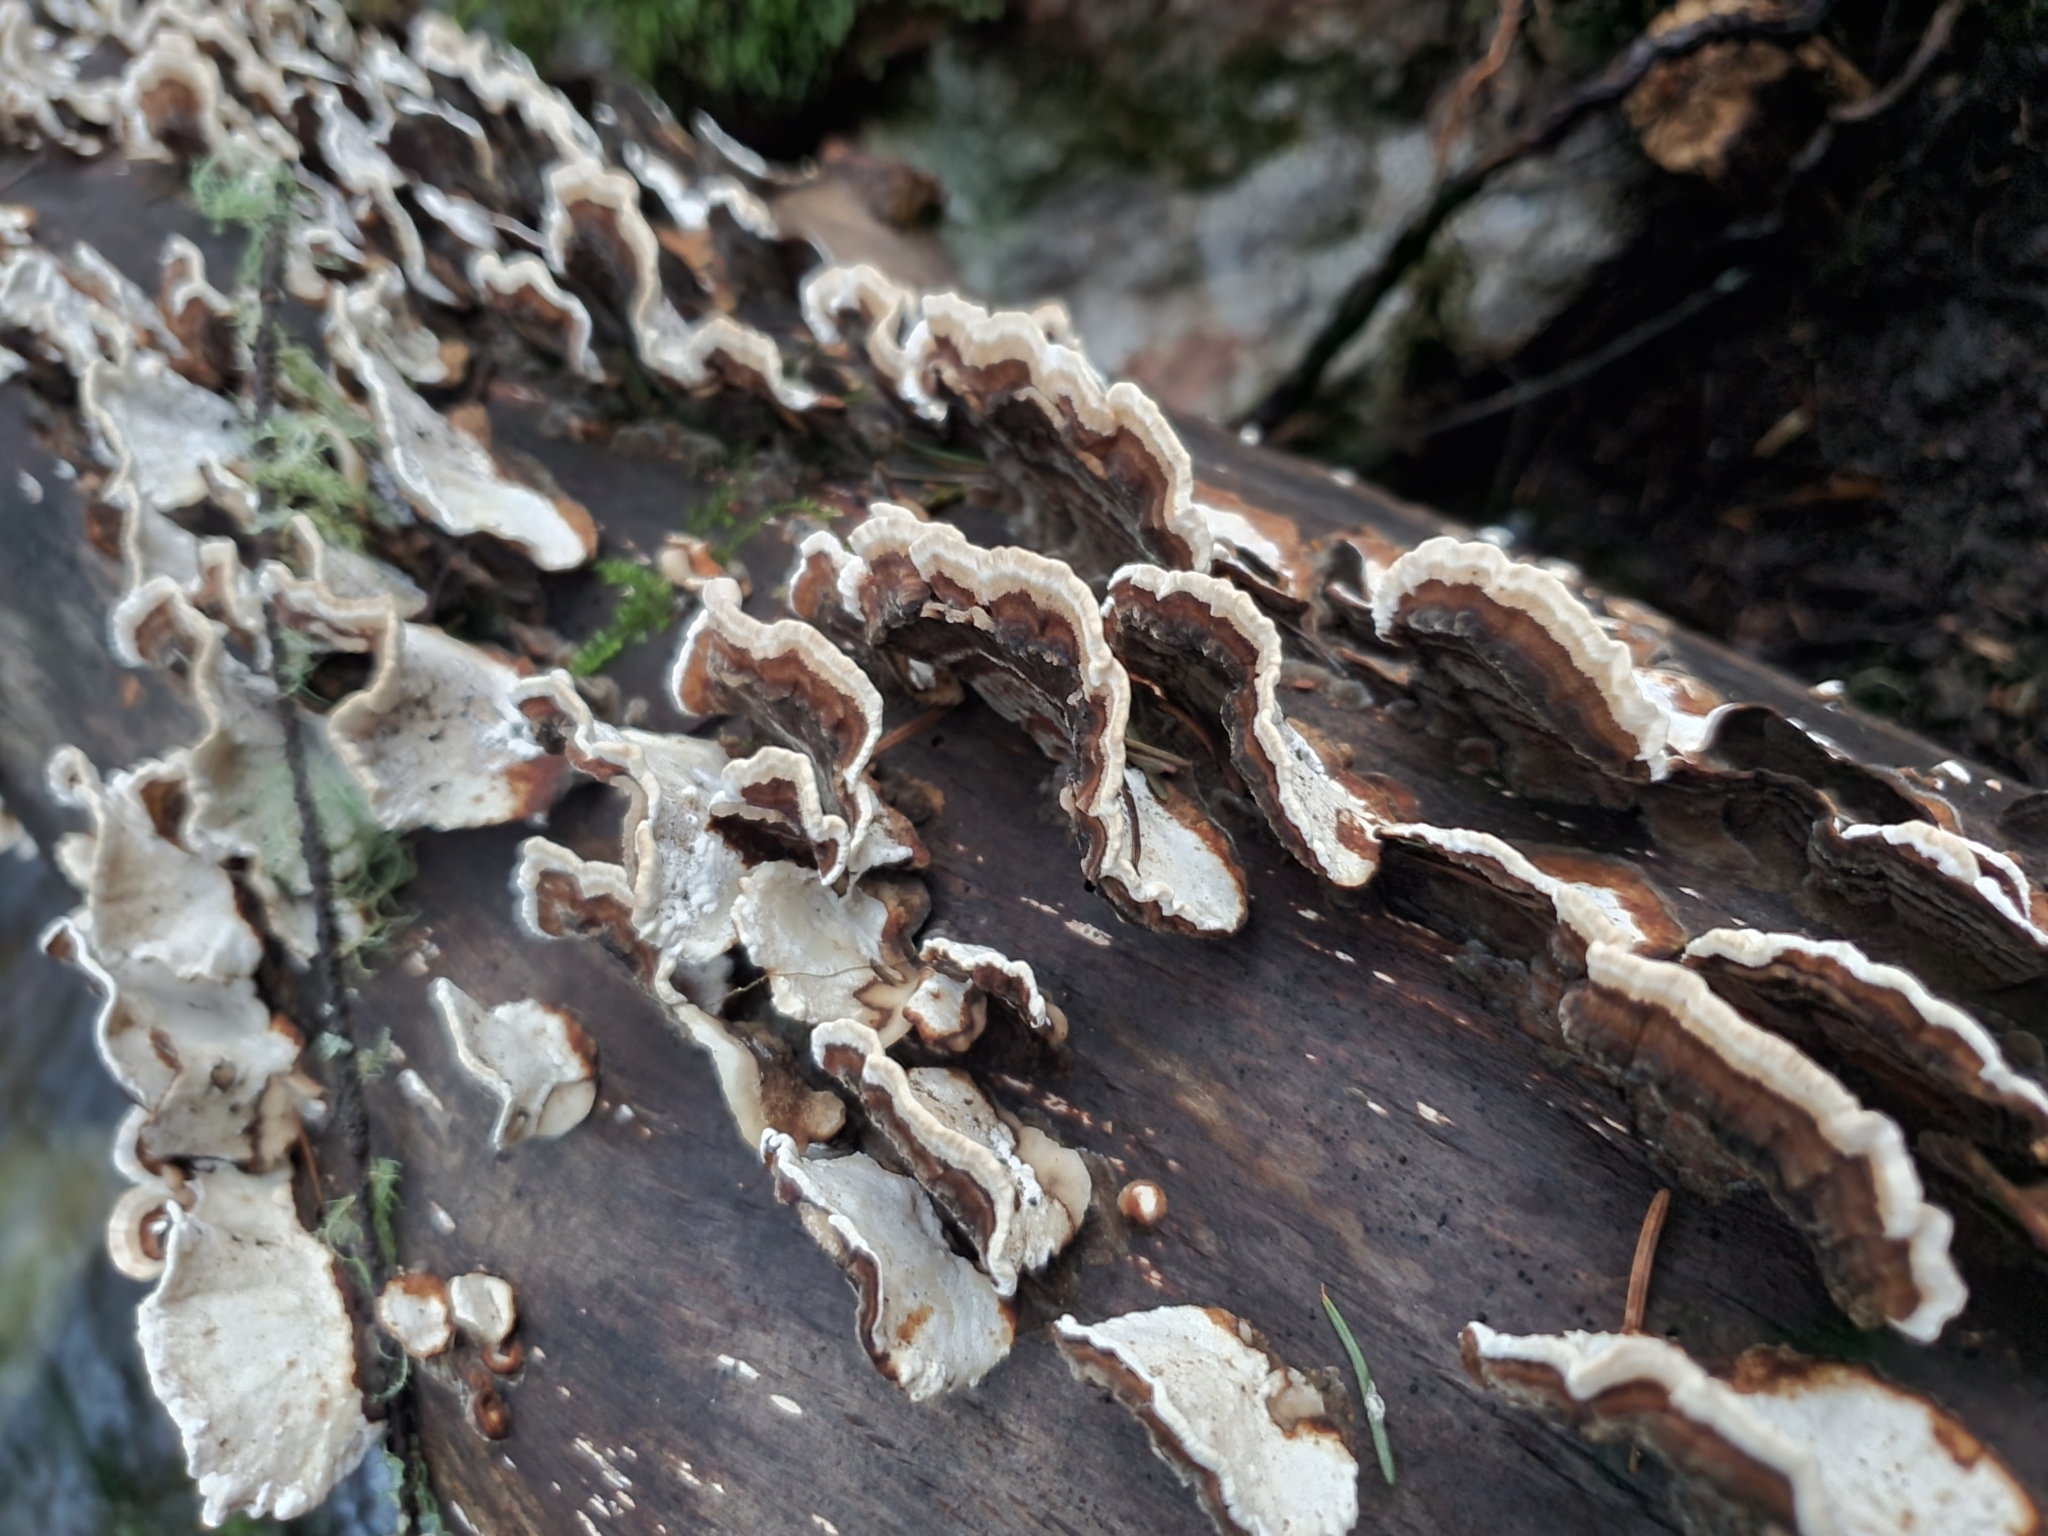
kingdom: Fungi
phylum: Basidiomycota
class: Agaricomycetes
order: Polyporales
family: Polyporaceae
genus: Trametes
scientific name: Trametes versicolor
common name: Turkeytail
